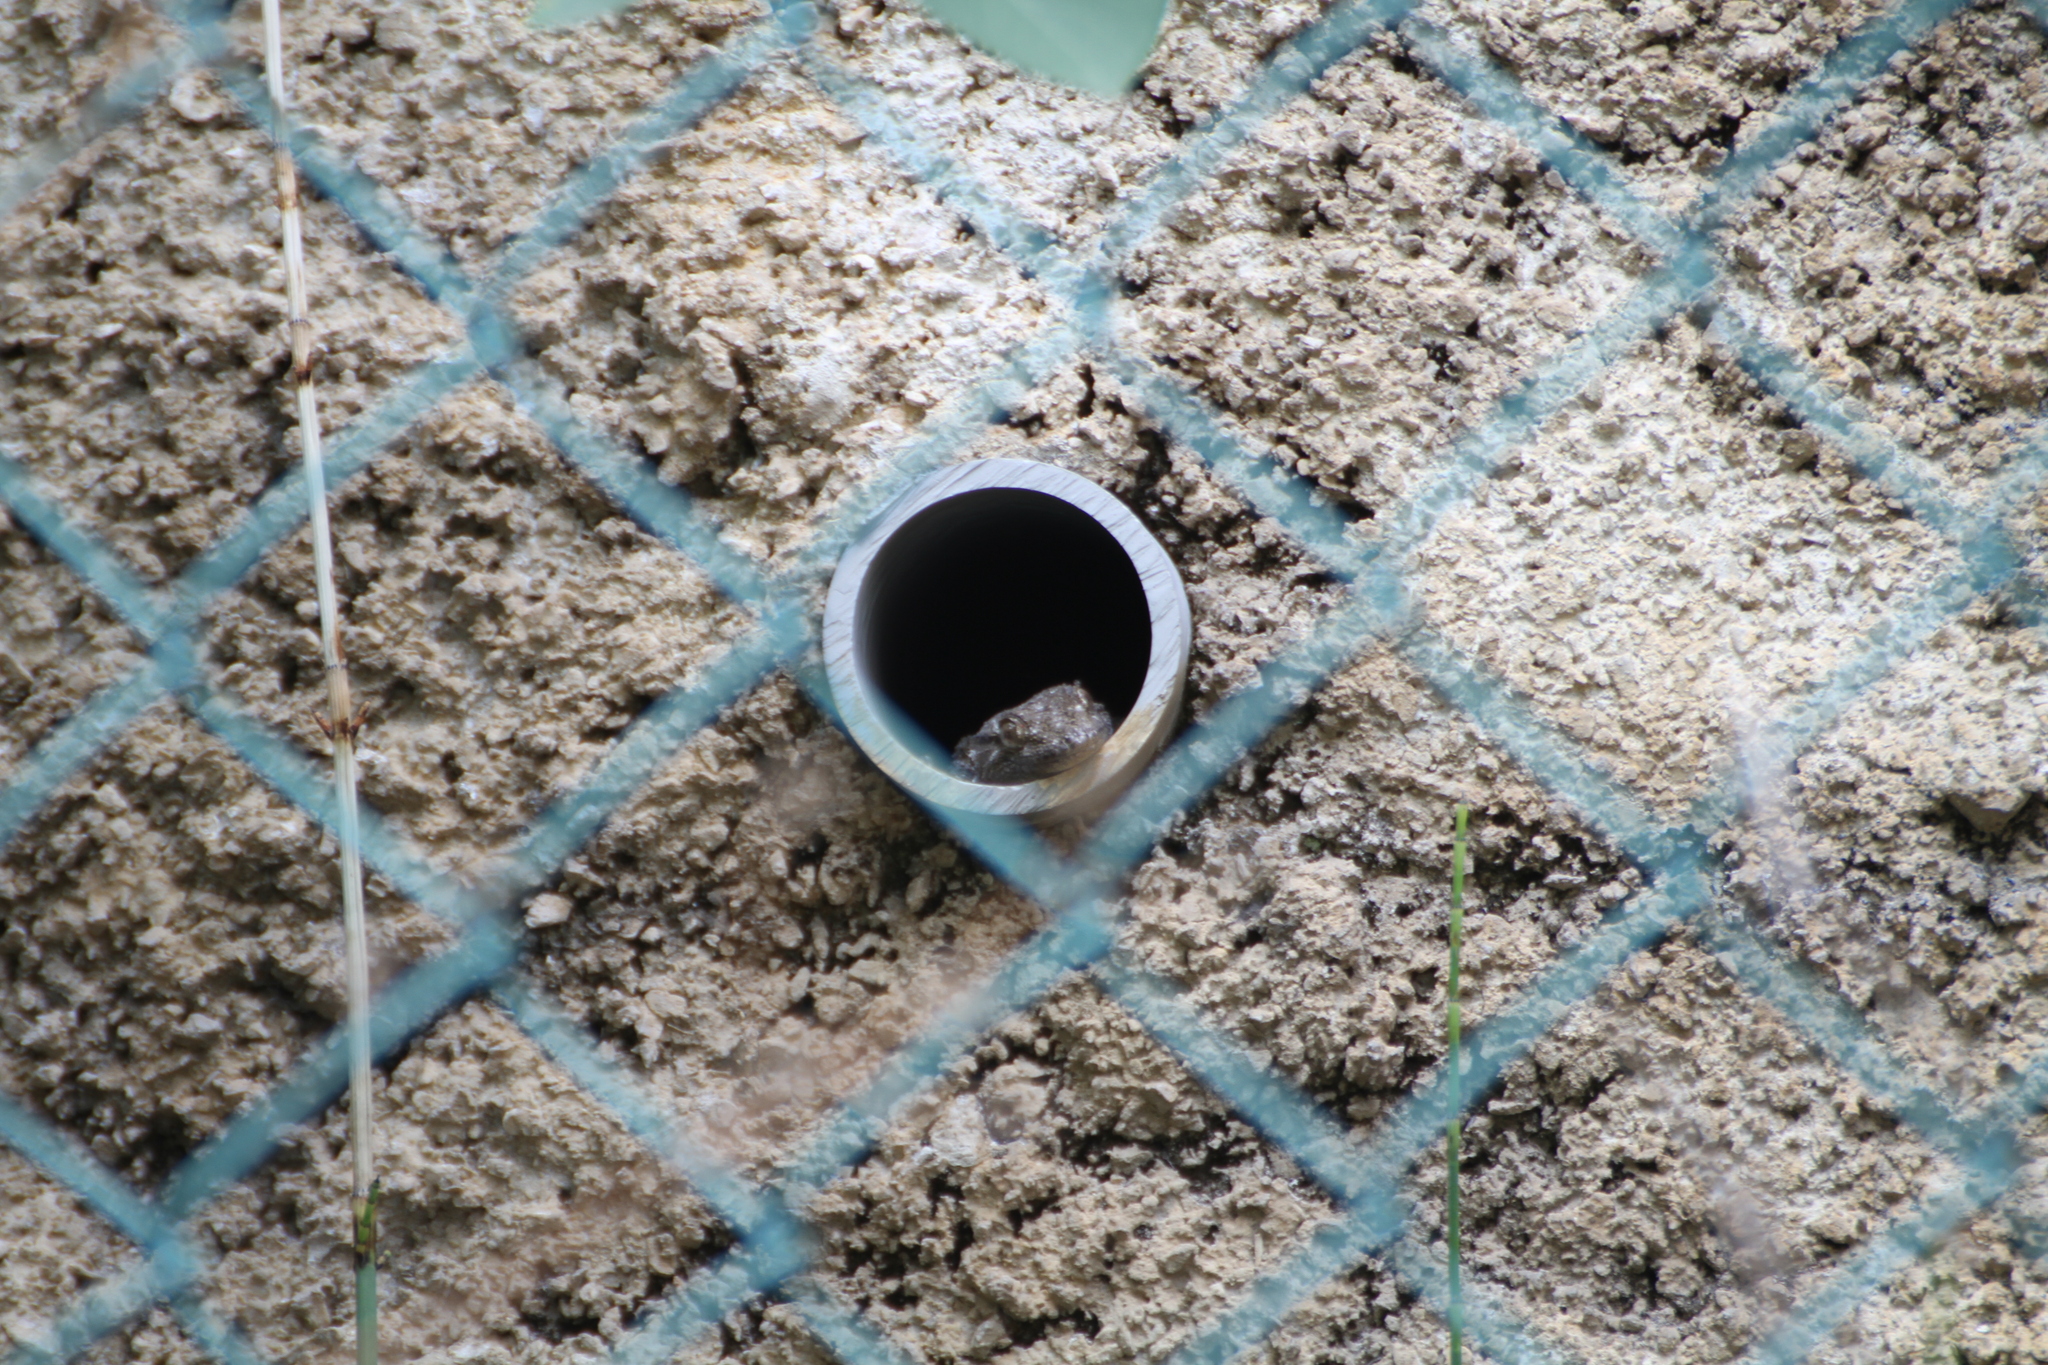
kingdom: Animalia
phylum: Chordata
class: Squamata
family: Phyllodactylidae
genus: Tarentola
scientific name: Tarentola mauritanica
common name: Moorish gecko
